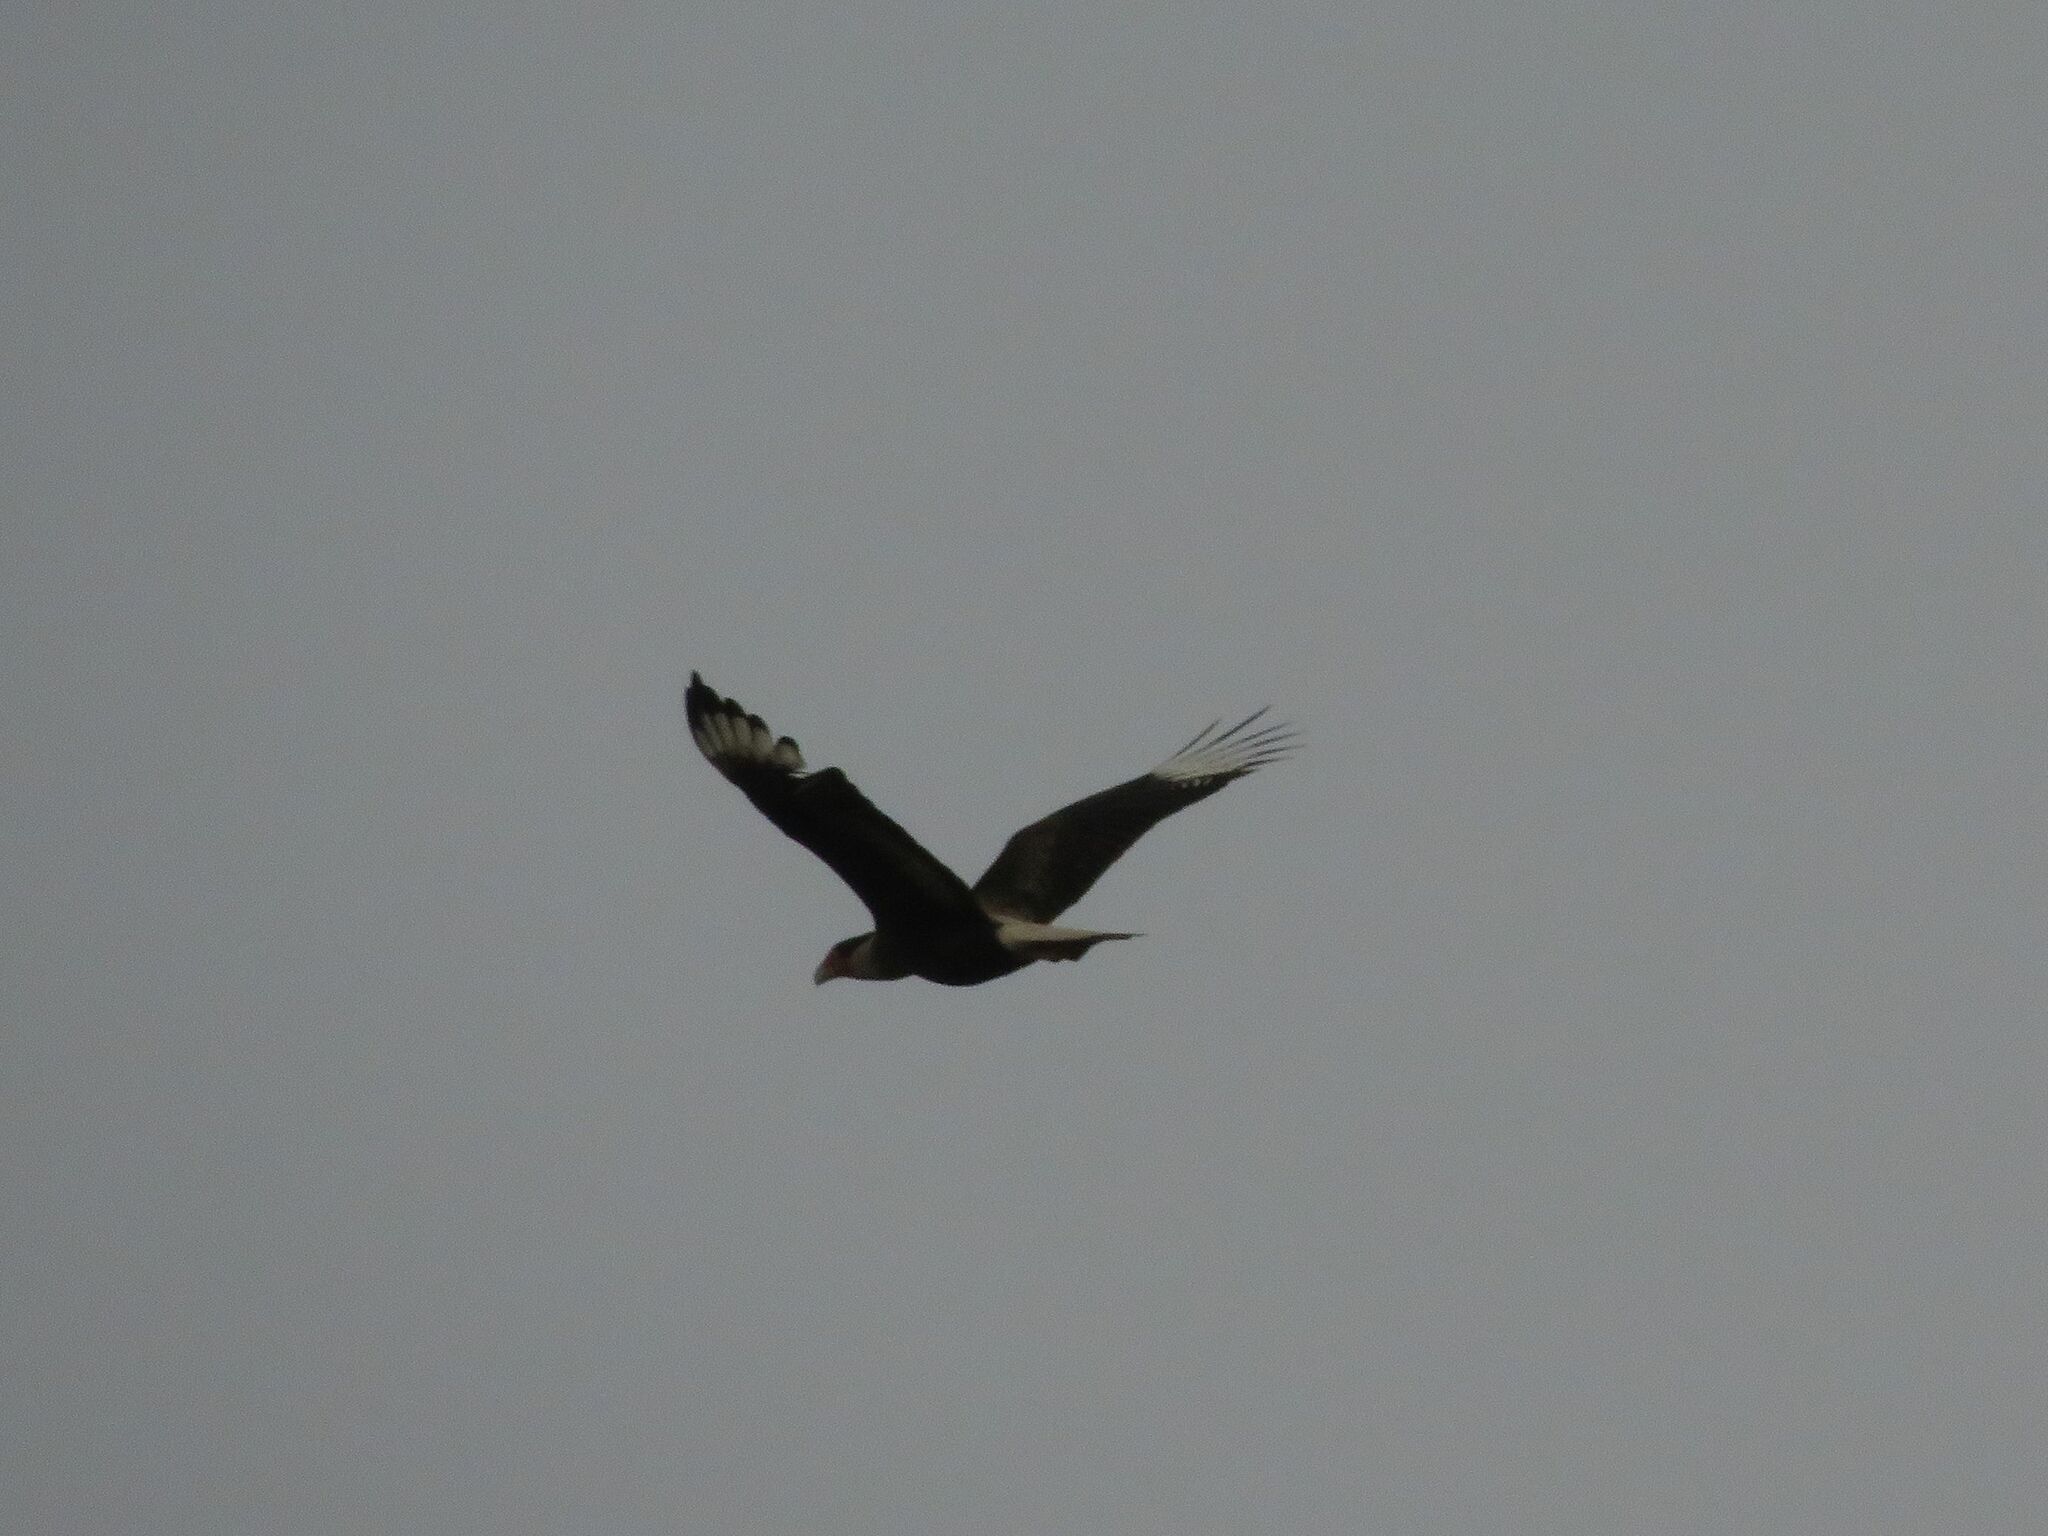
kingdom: Animalia
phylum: Chordata
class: Aves
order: Falconiformes
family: Falconidae
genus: Caracara
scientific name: Caracara plancus
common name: Southern caracara
